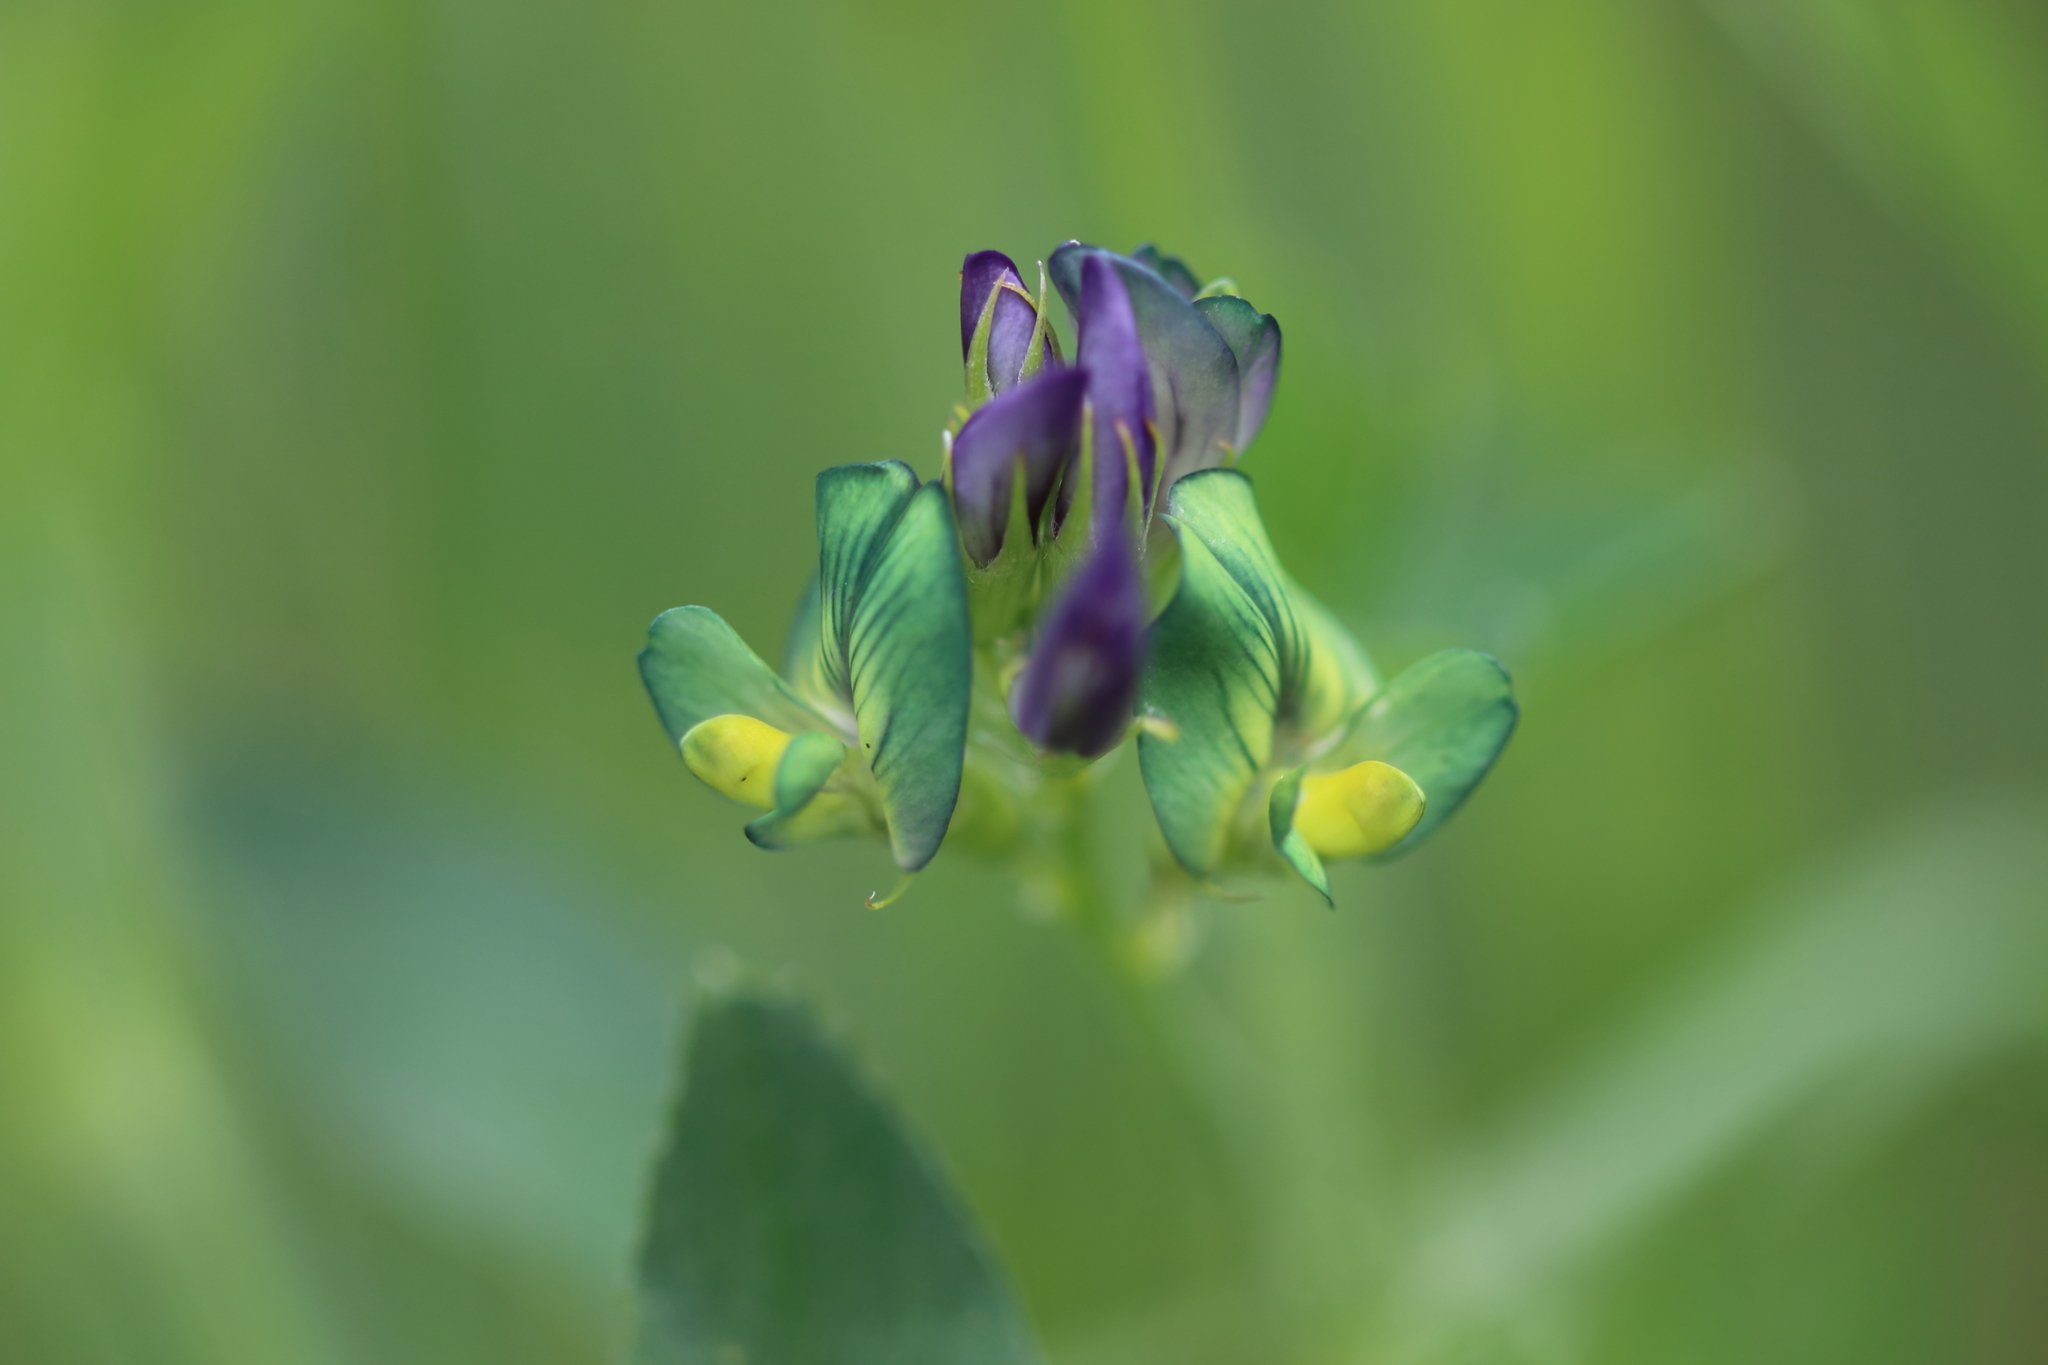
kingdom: Plantae
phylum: Tracheophyta
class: Magnoliopsida
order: Fabales
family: Fabaceae
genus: Medicago
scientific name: Medicago sativa
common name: Alfalfa
